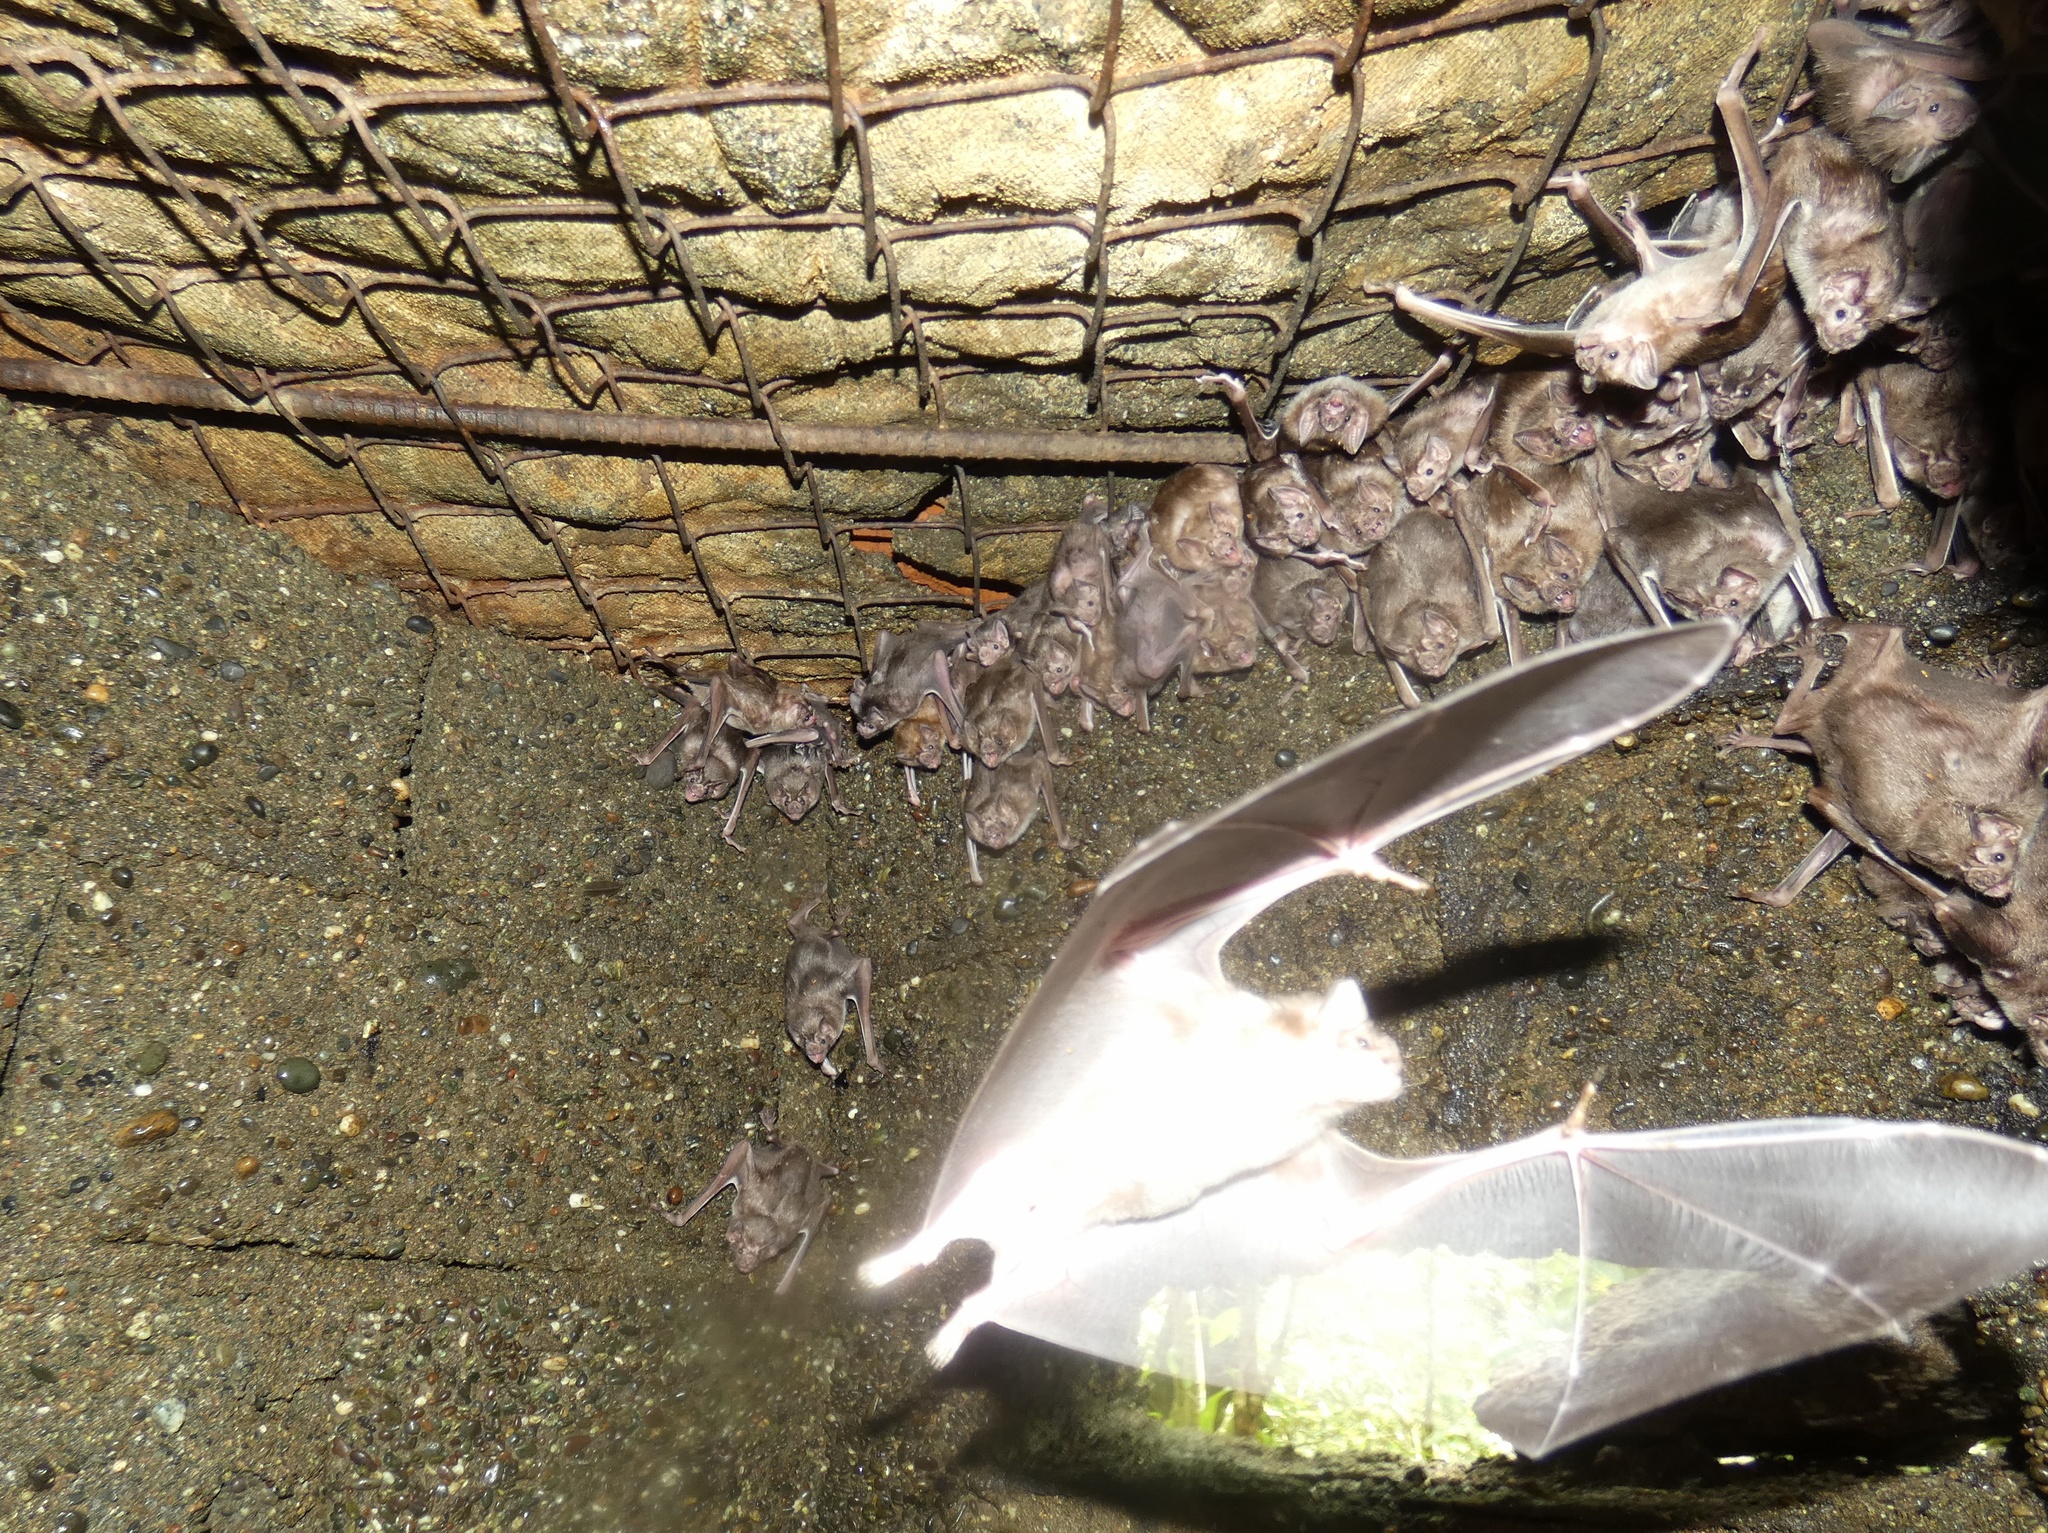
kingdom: Animalia
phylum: Chordata
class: Mammalia
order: Chiroptera
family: Phyllostomidae
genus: Desmodus
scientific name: Desmodus rotundus
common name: Common vampire bat
